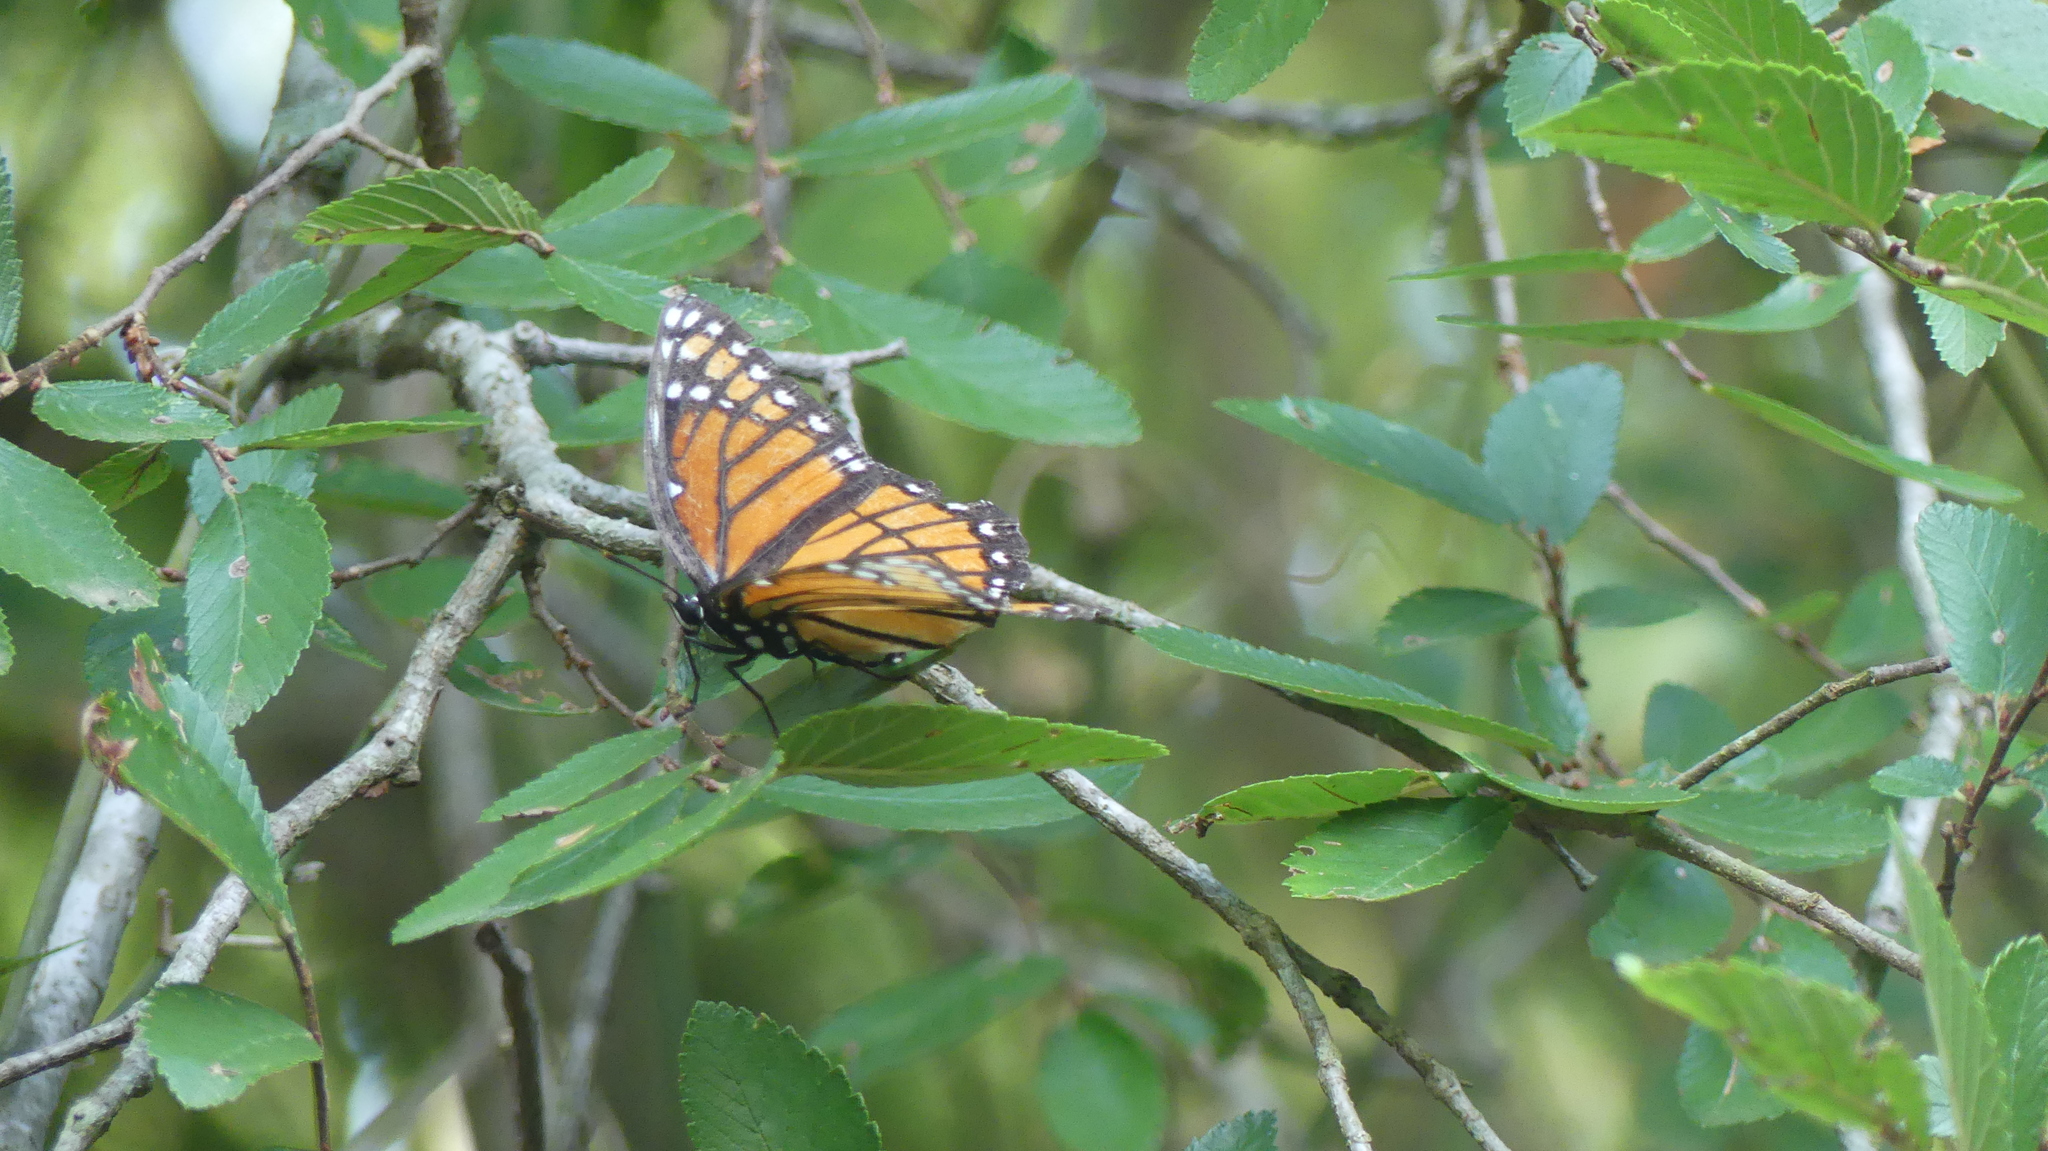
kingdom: Animalia
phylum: Arthropoda
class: Insecta
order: Lepidoptera
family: Nymphalidae
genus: Limenitis
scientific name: Limenitis archippus
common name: Viceroy
